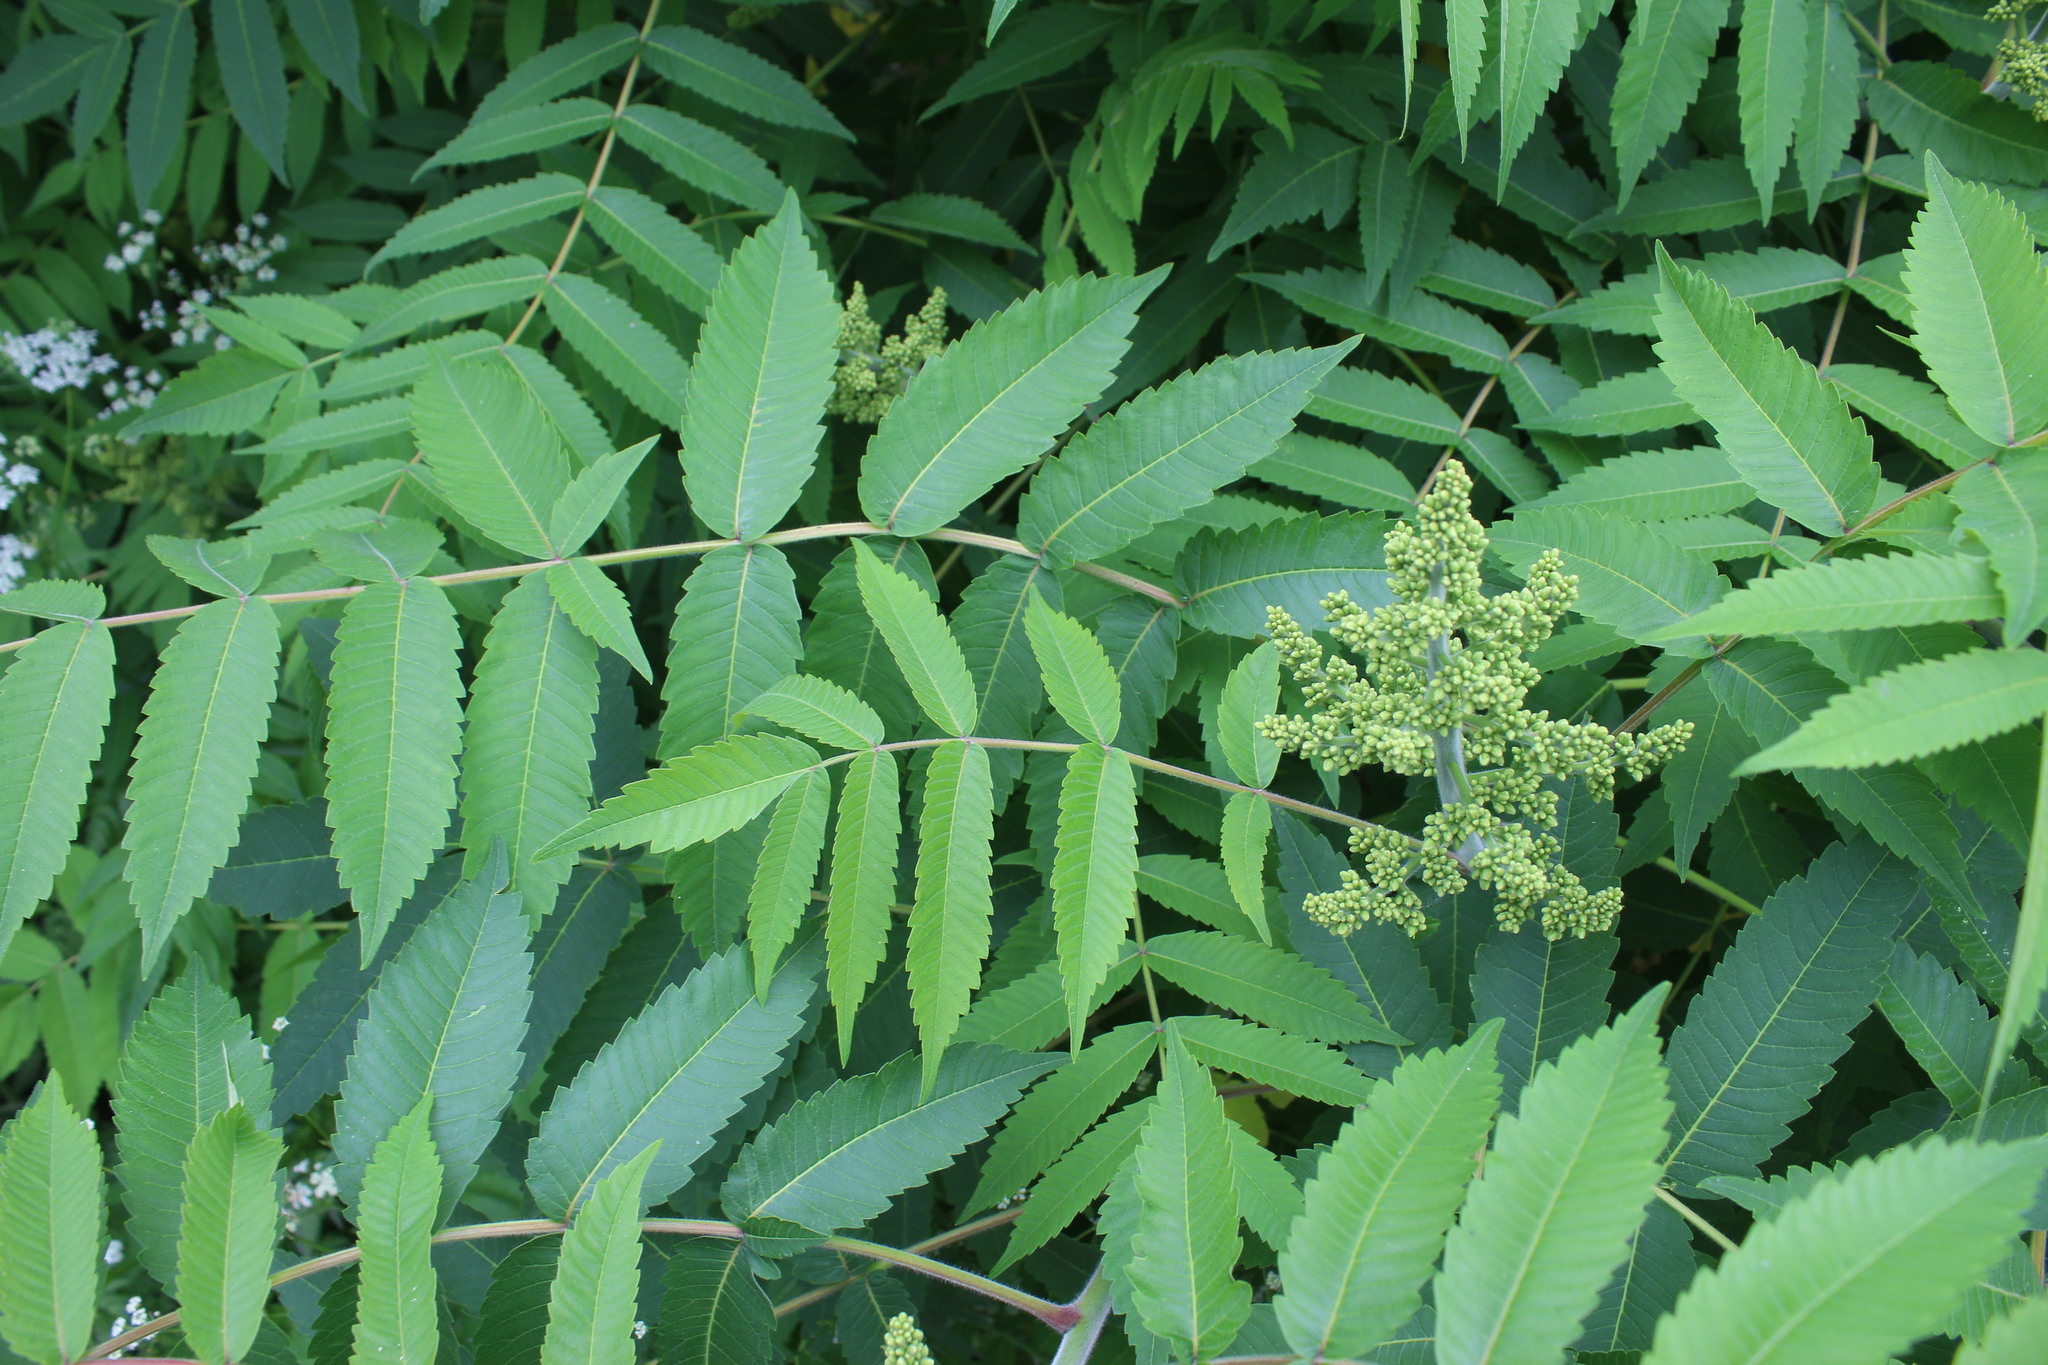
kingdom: Plantae
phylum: Tracheophyta
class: Magnoliopsida
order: Sapindales
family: Anacardiaceae
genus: Rhus
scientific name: Rhus typhina
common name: Staghorn sumac
